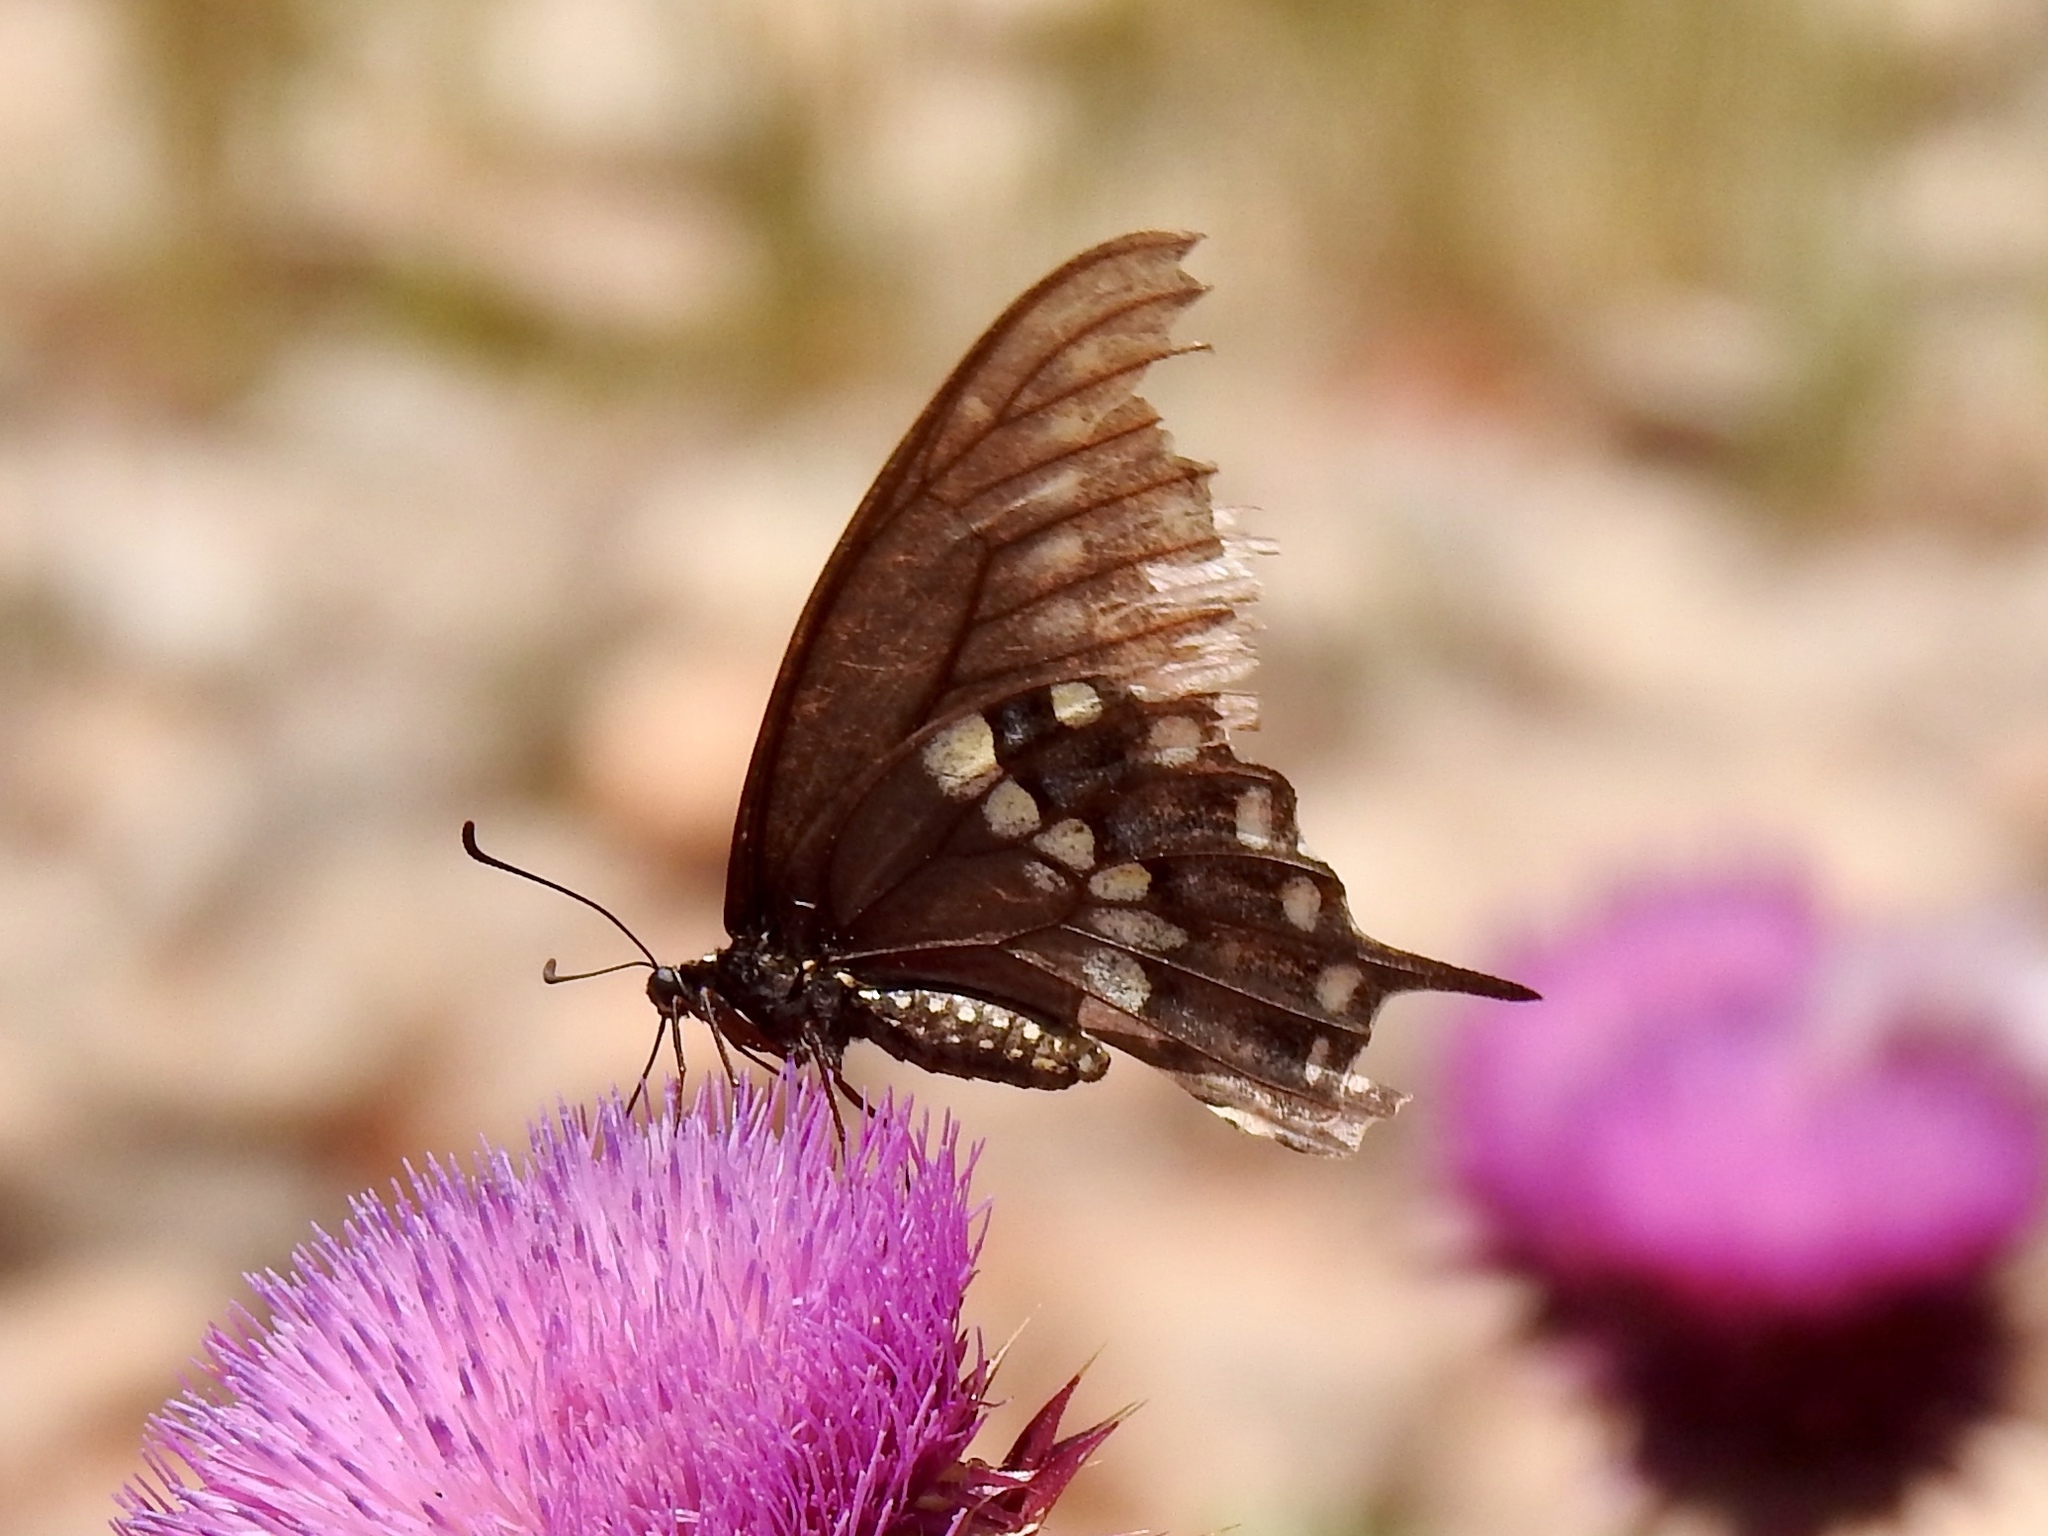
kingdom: Animalia
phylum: Arthropoda
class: Insecta
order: Lepidoptera
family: Papilionidae
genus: Papilio
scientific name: Papilio polyxenes
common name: Black swallowtail
